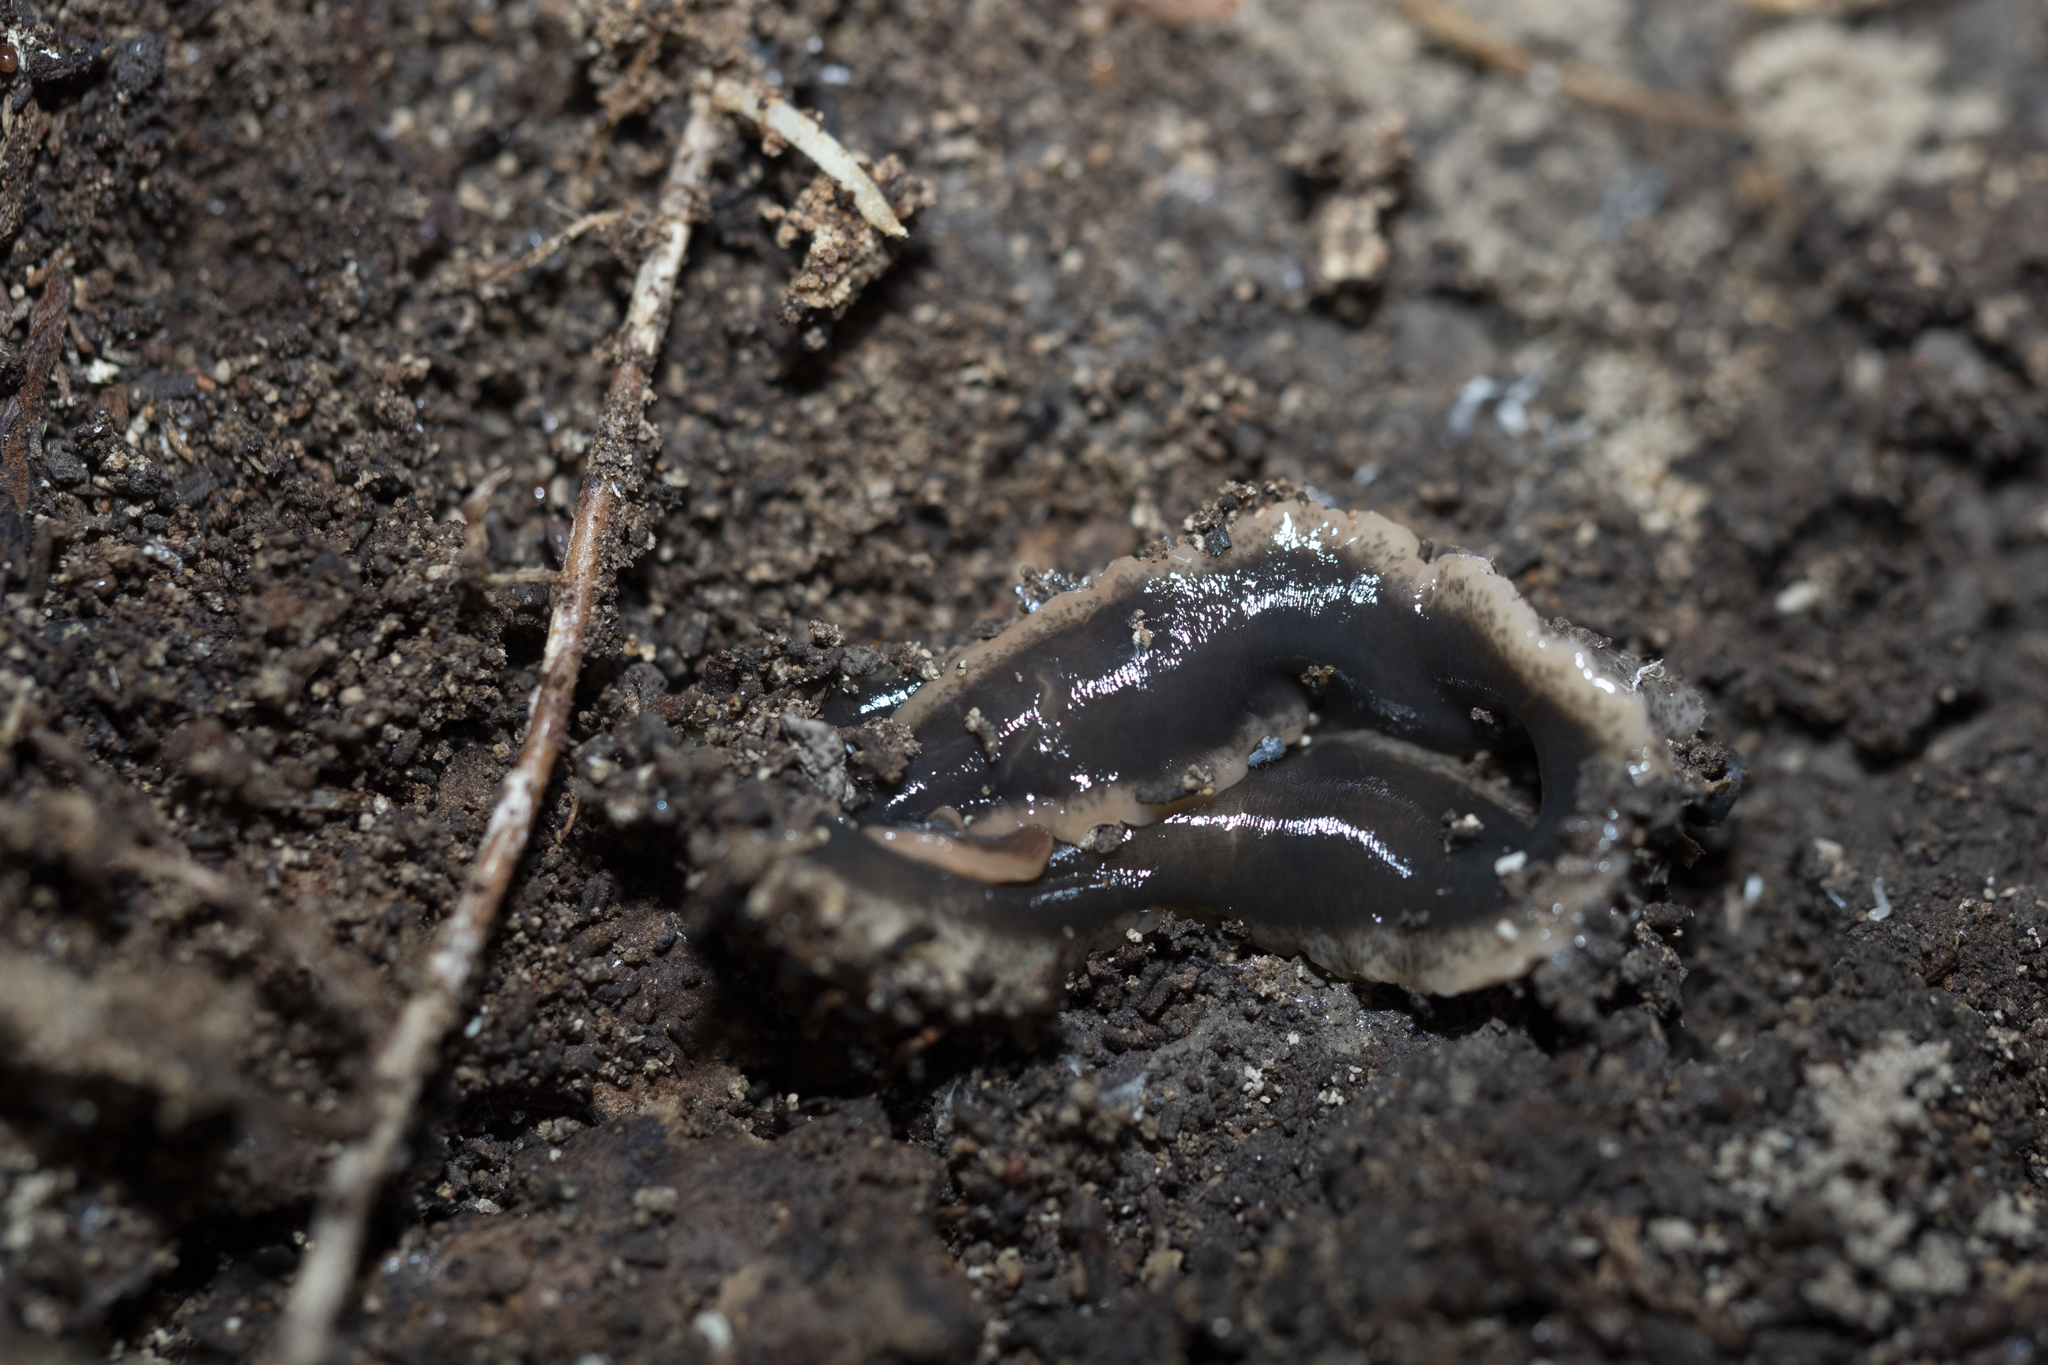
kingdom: Animalia
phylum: Platyhelminthes
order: Tricladida
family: Geoplanidae
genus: Arthurdendyus
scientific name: Arthurdendyus triangulatus
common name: New zealand flatworm
